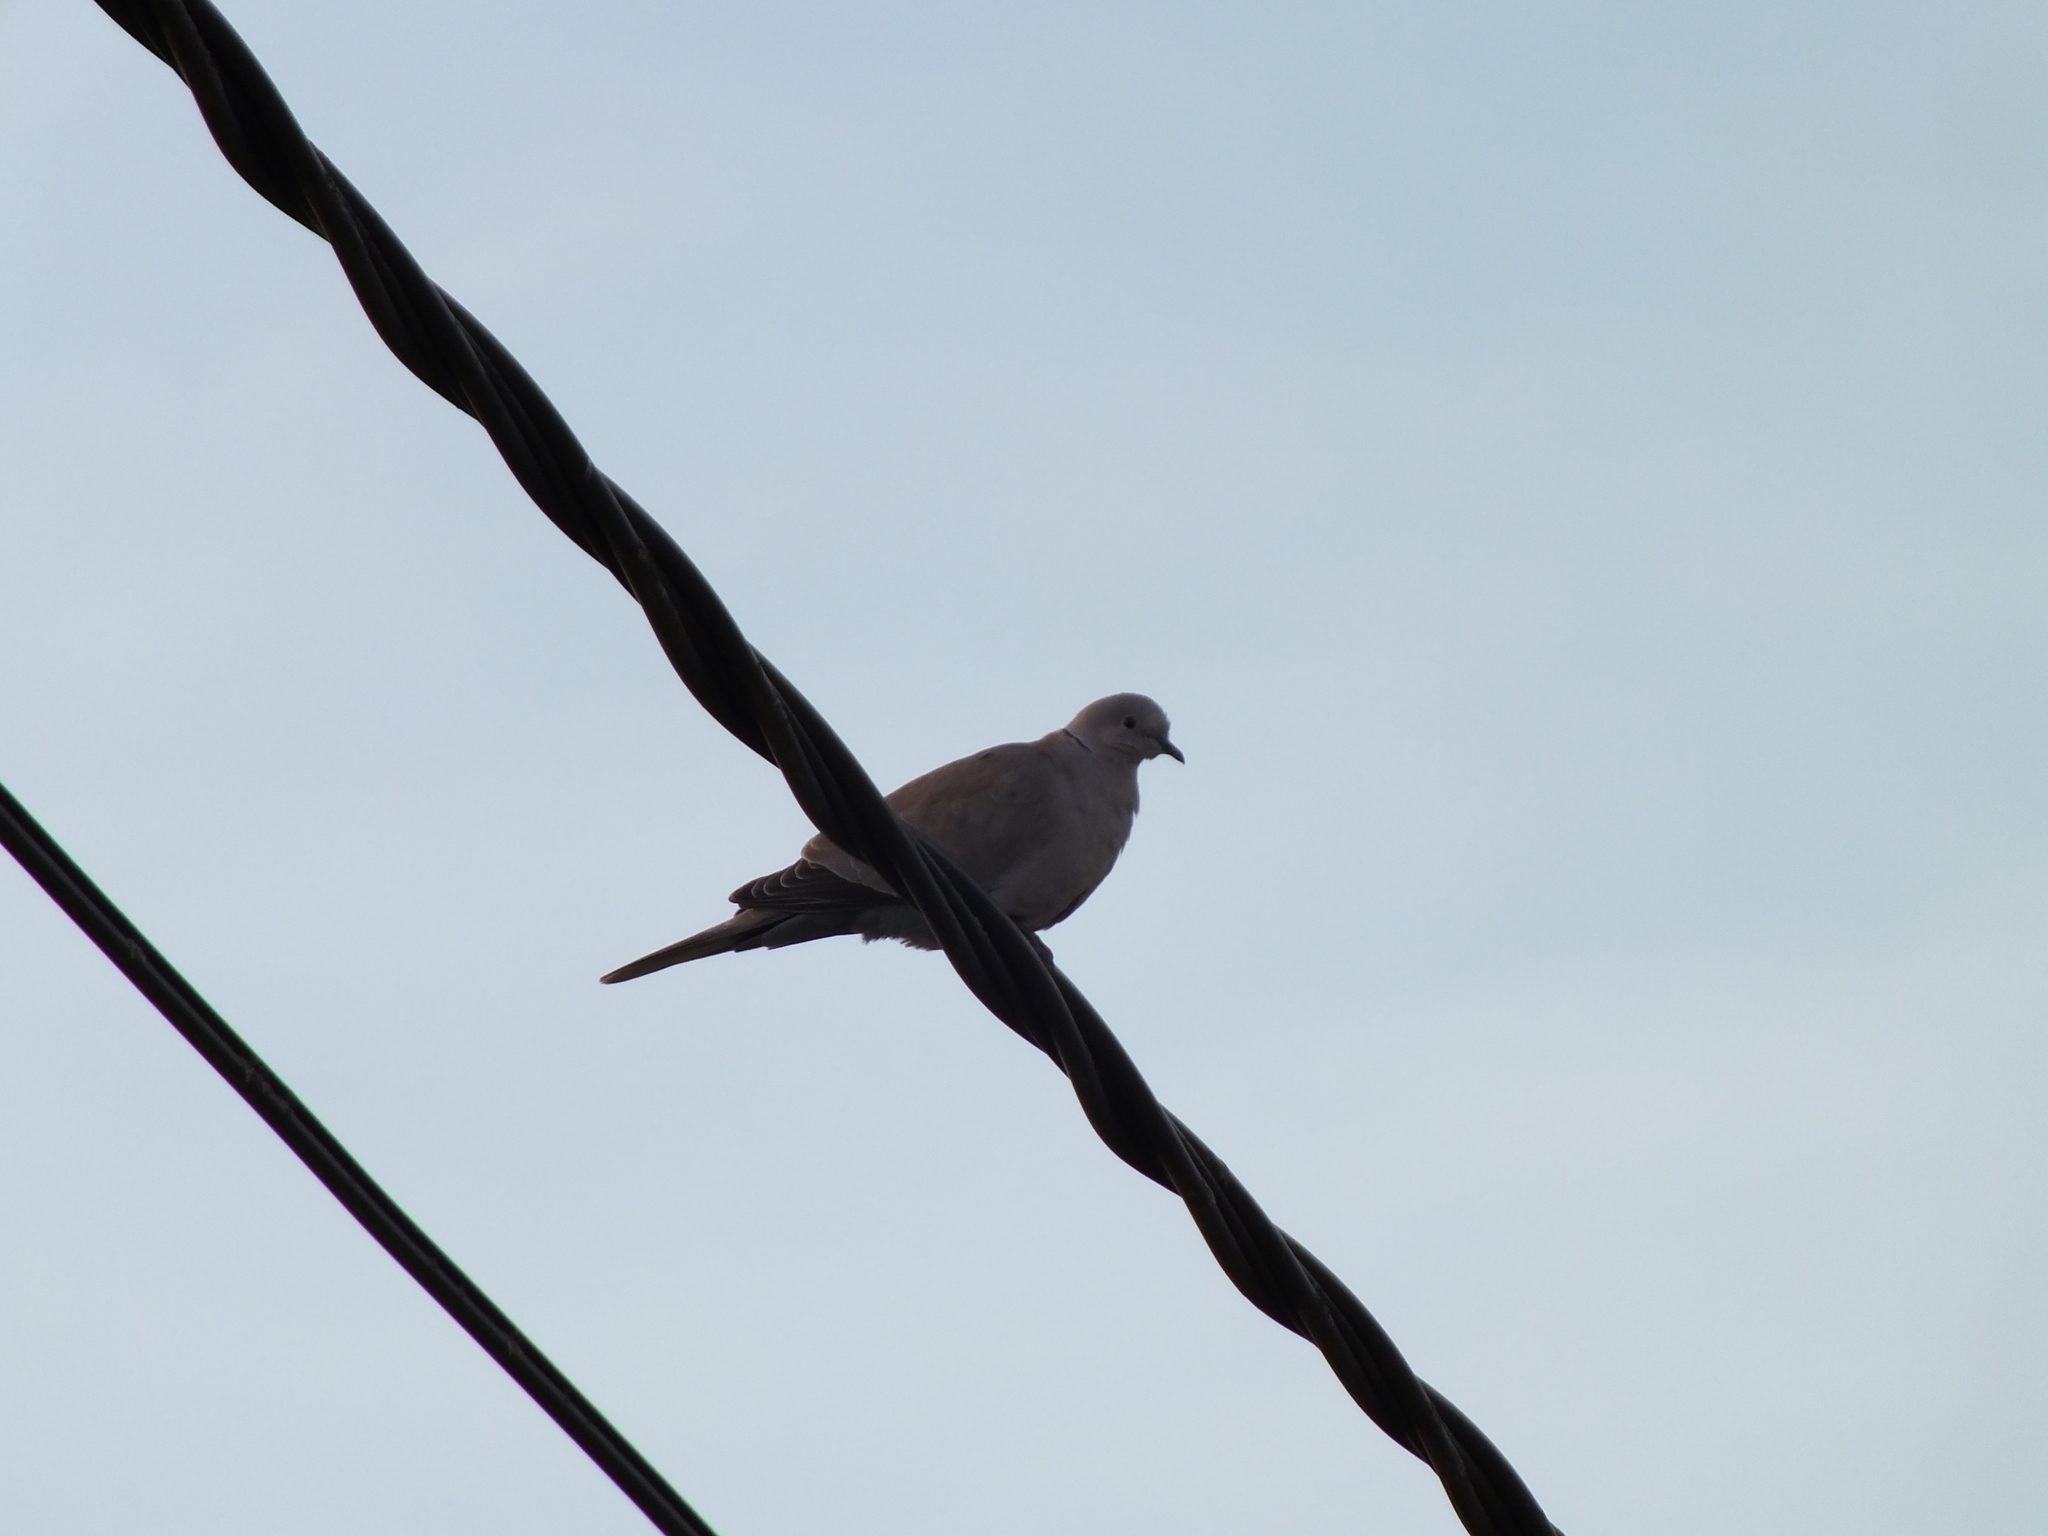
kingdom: Animalia
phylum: Chordata
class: Aves
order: Columbiformes
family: Columbidae
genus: Streptopelia
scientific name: Streptopelia decaocto
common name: Eurasian collared dove
